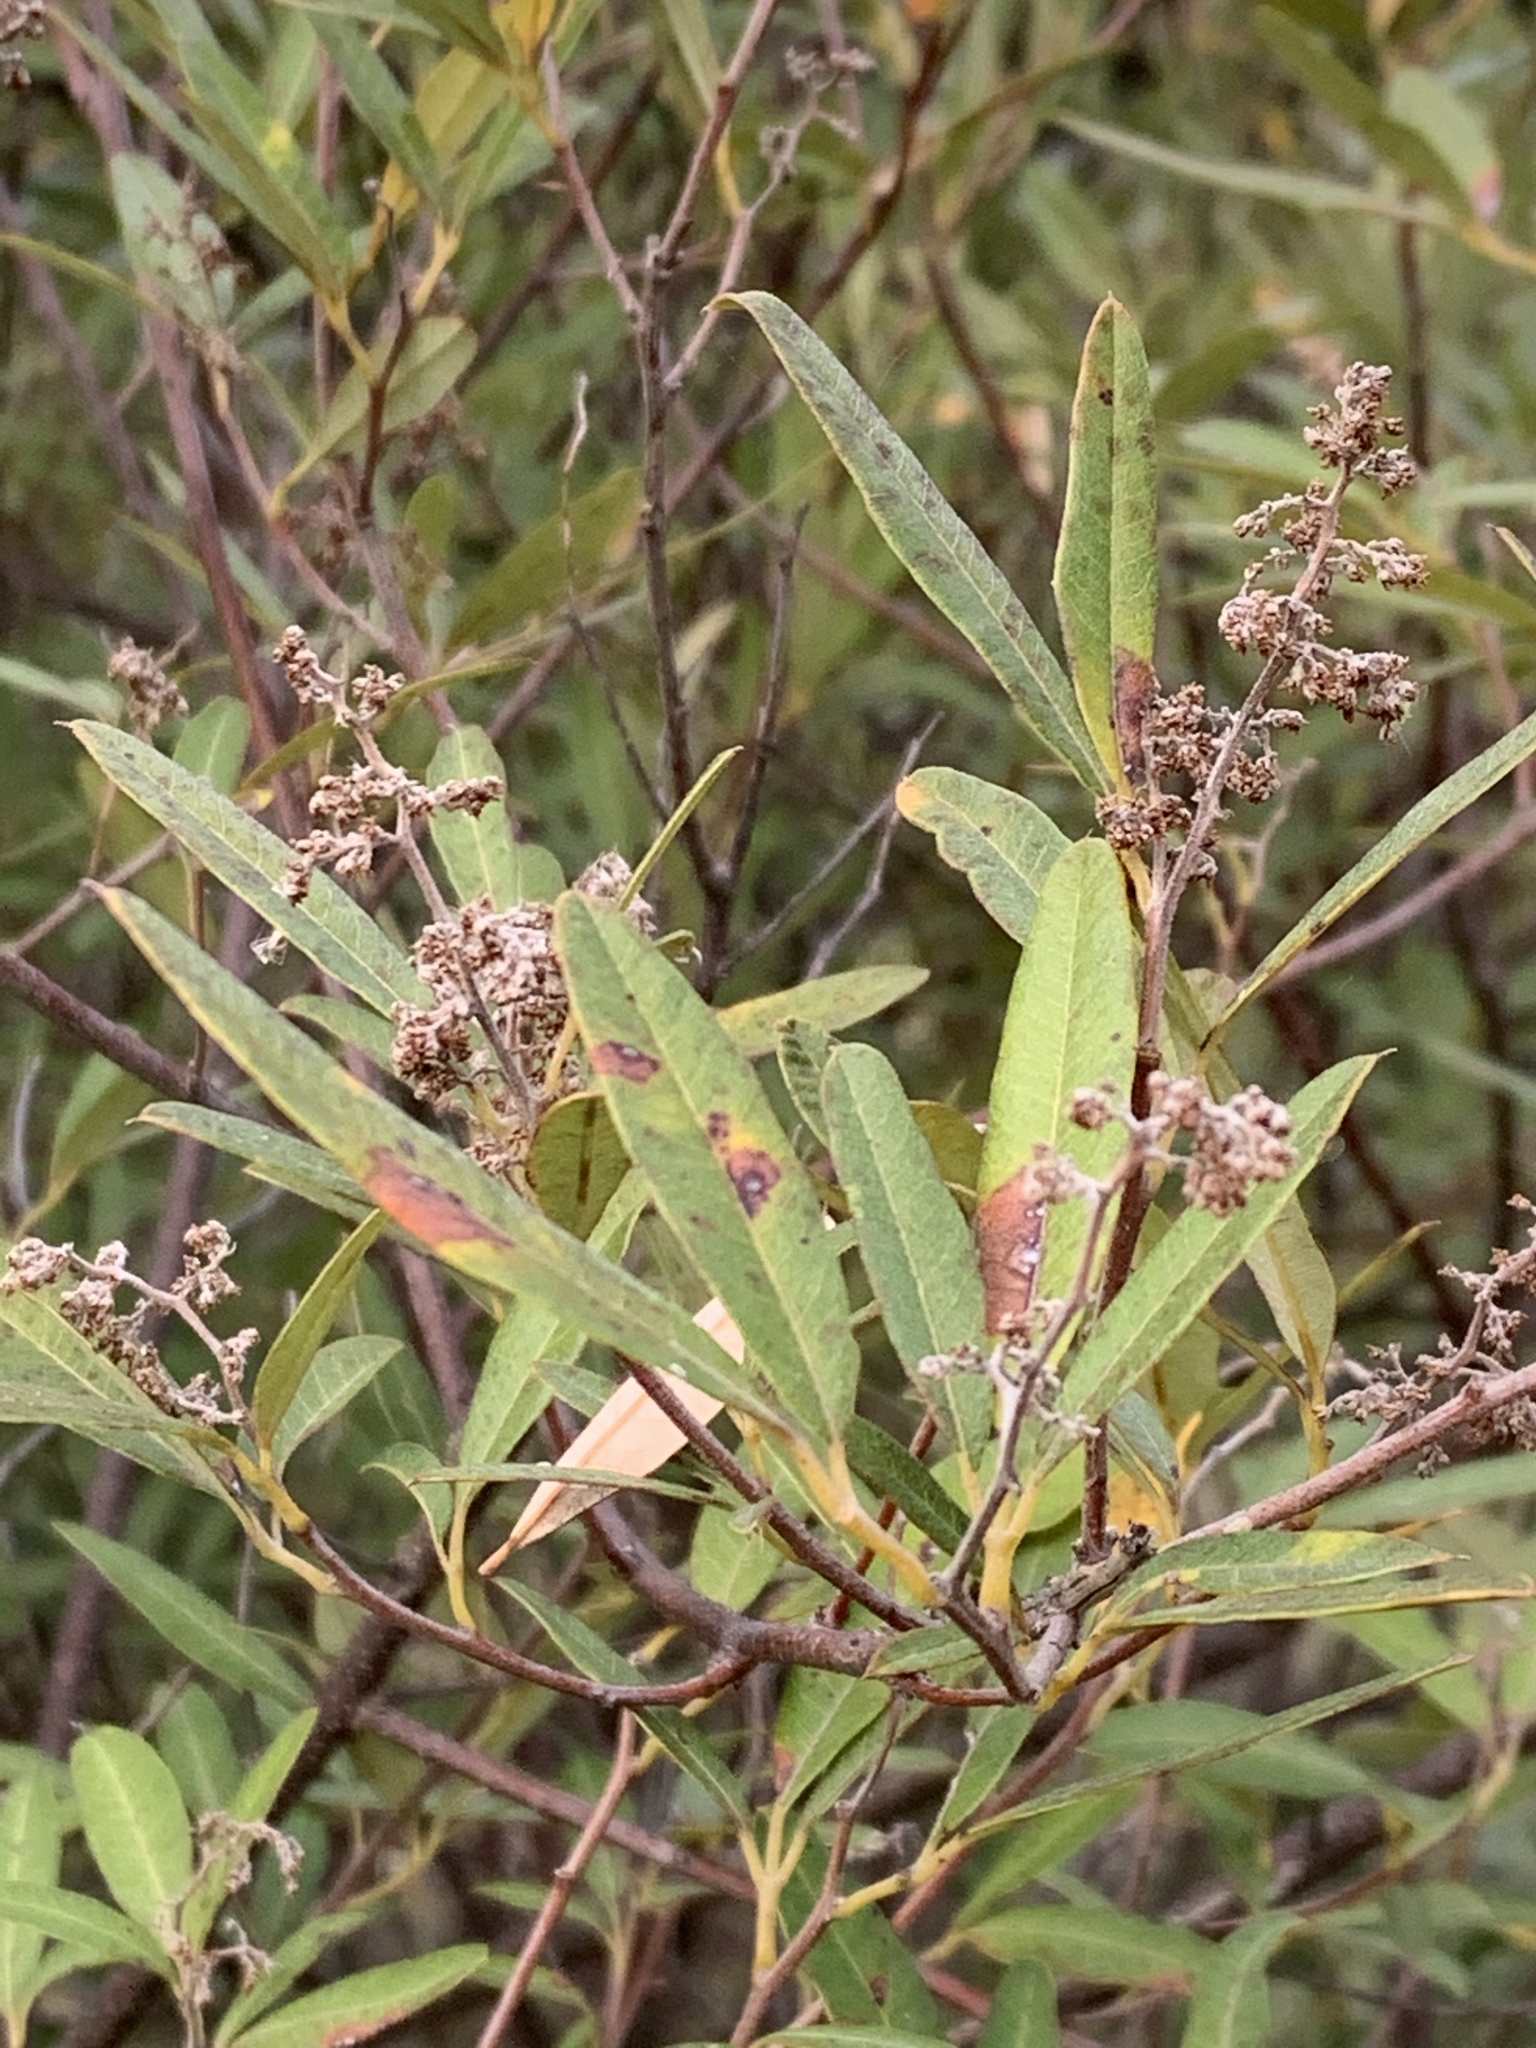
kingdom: Plantae
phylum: Tracheophyta
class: Magnoliopsida
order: Sapindales
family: Anacardiaceae
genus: Searsia
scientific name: Searsia angustifolia
